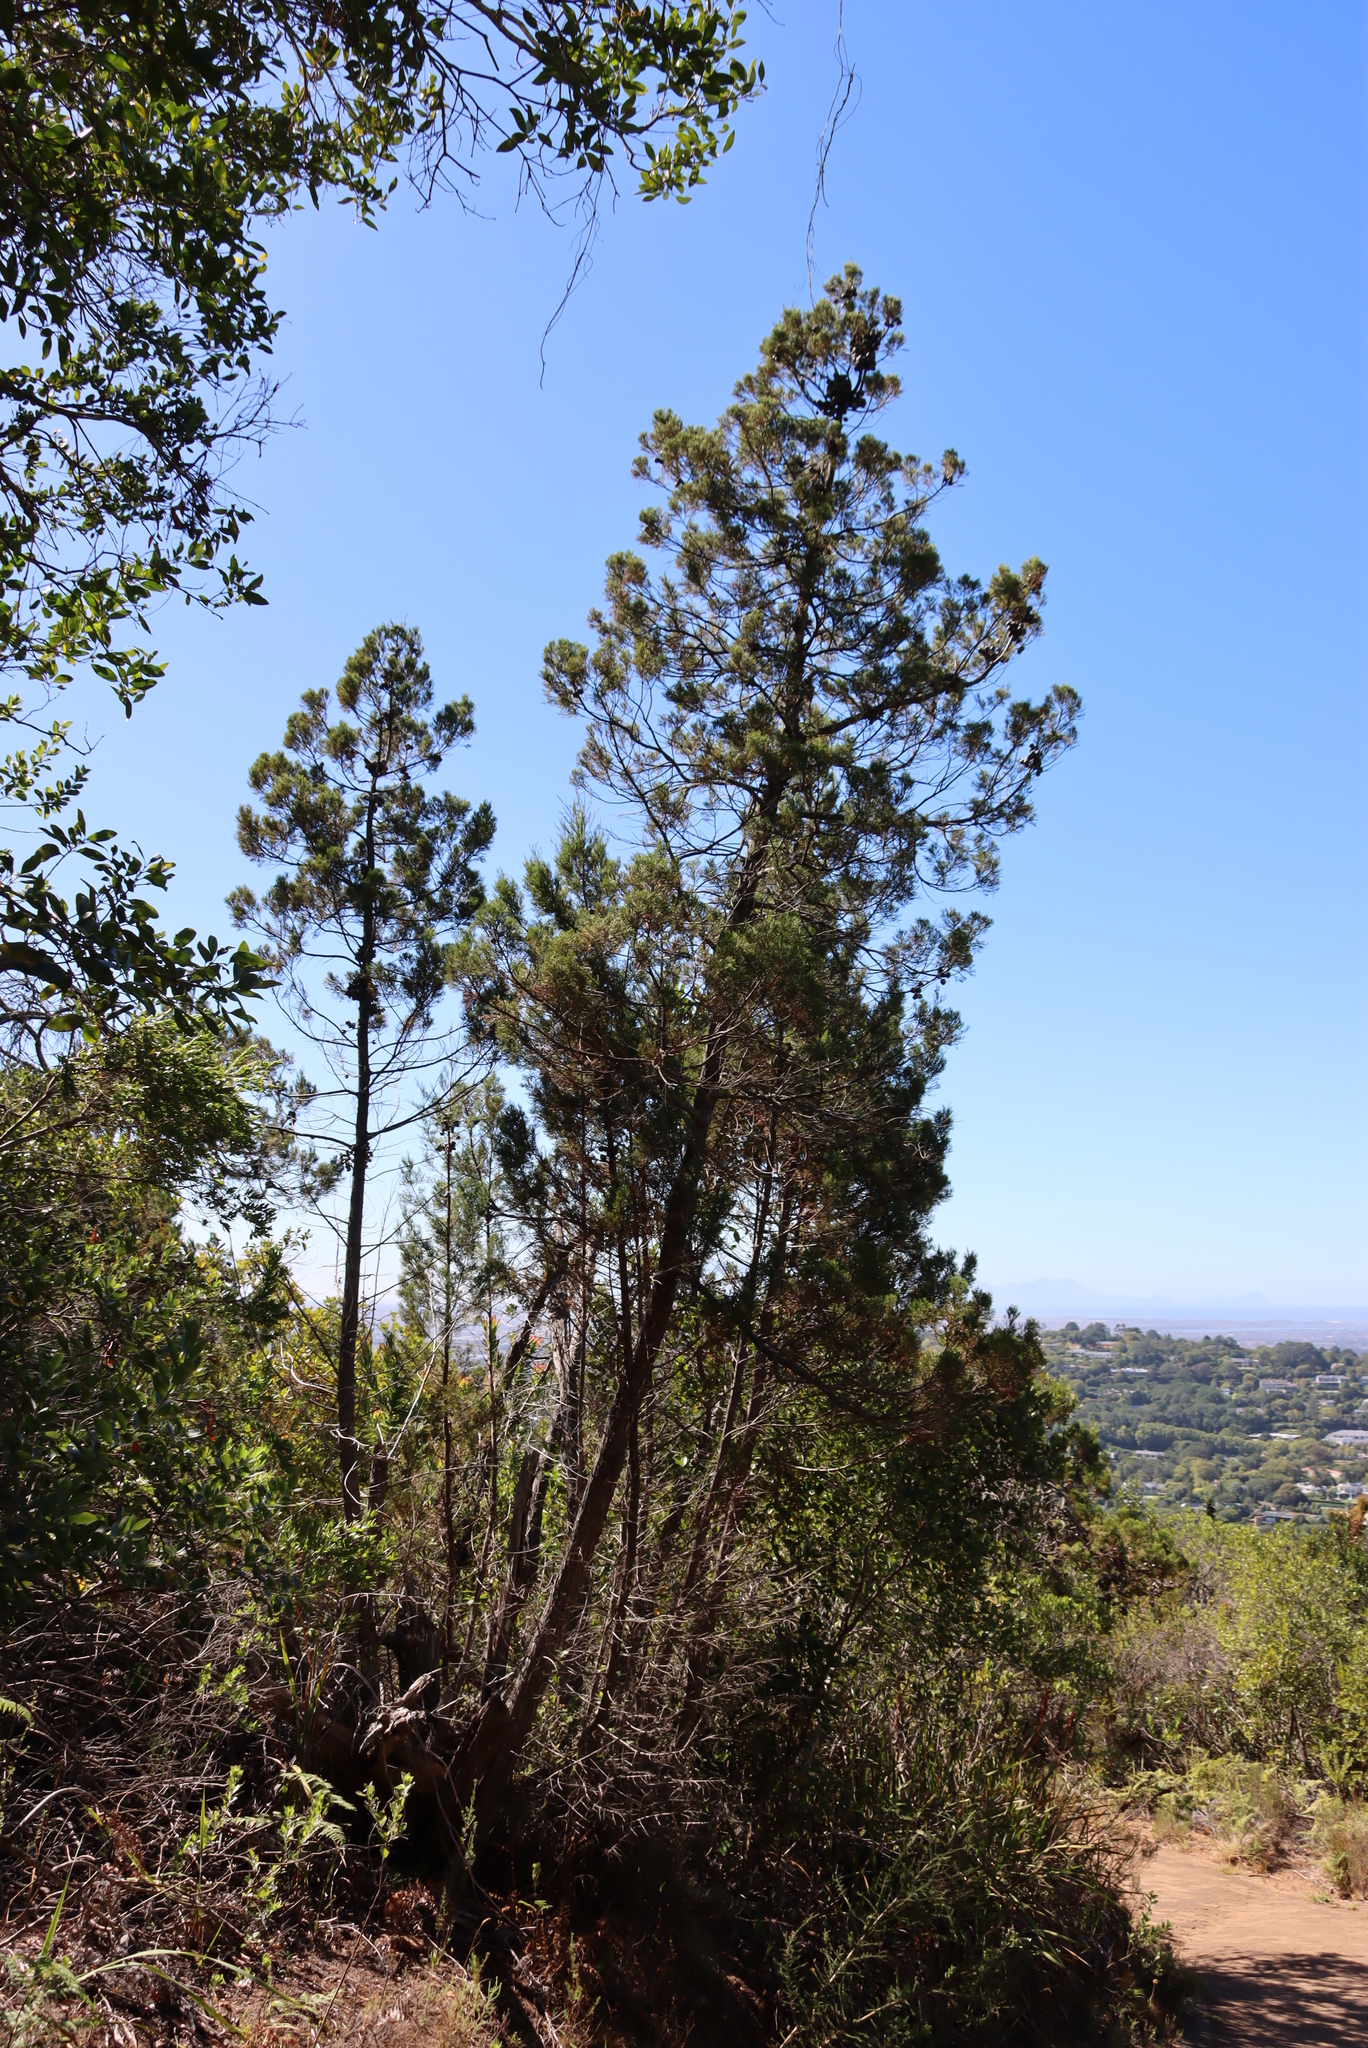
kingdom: Plantae
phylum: Tracheophyta
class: Pinopsida
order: Pinales
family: Cupressaceae
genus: Widdringtonia
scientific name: Widdringtonia nodiflora
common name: Cape cypress
